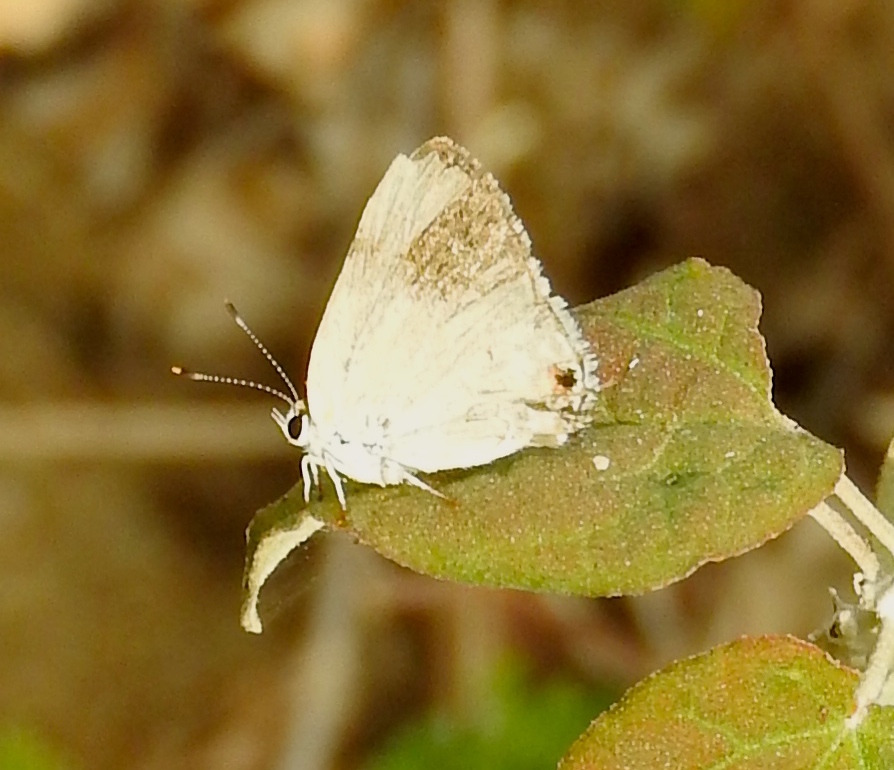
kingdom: Animalia
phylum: Arthropoda
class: Insecta
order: Lepidoptera
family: Lycaenidae
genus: Strymon
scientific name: Strymon
